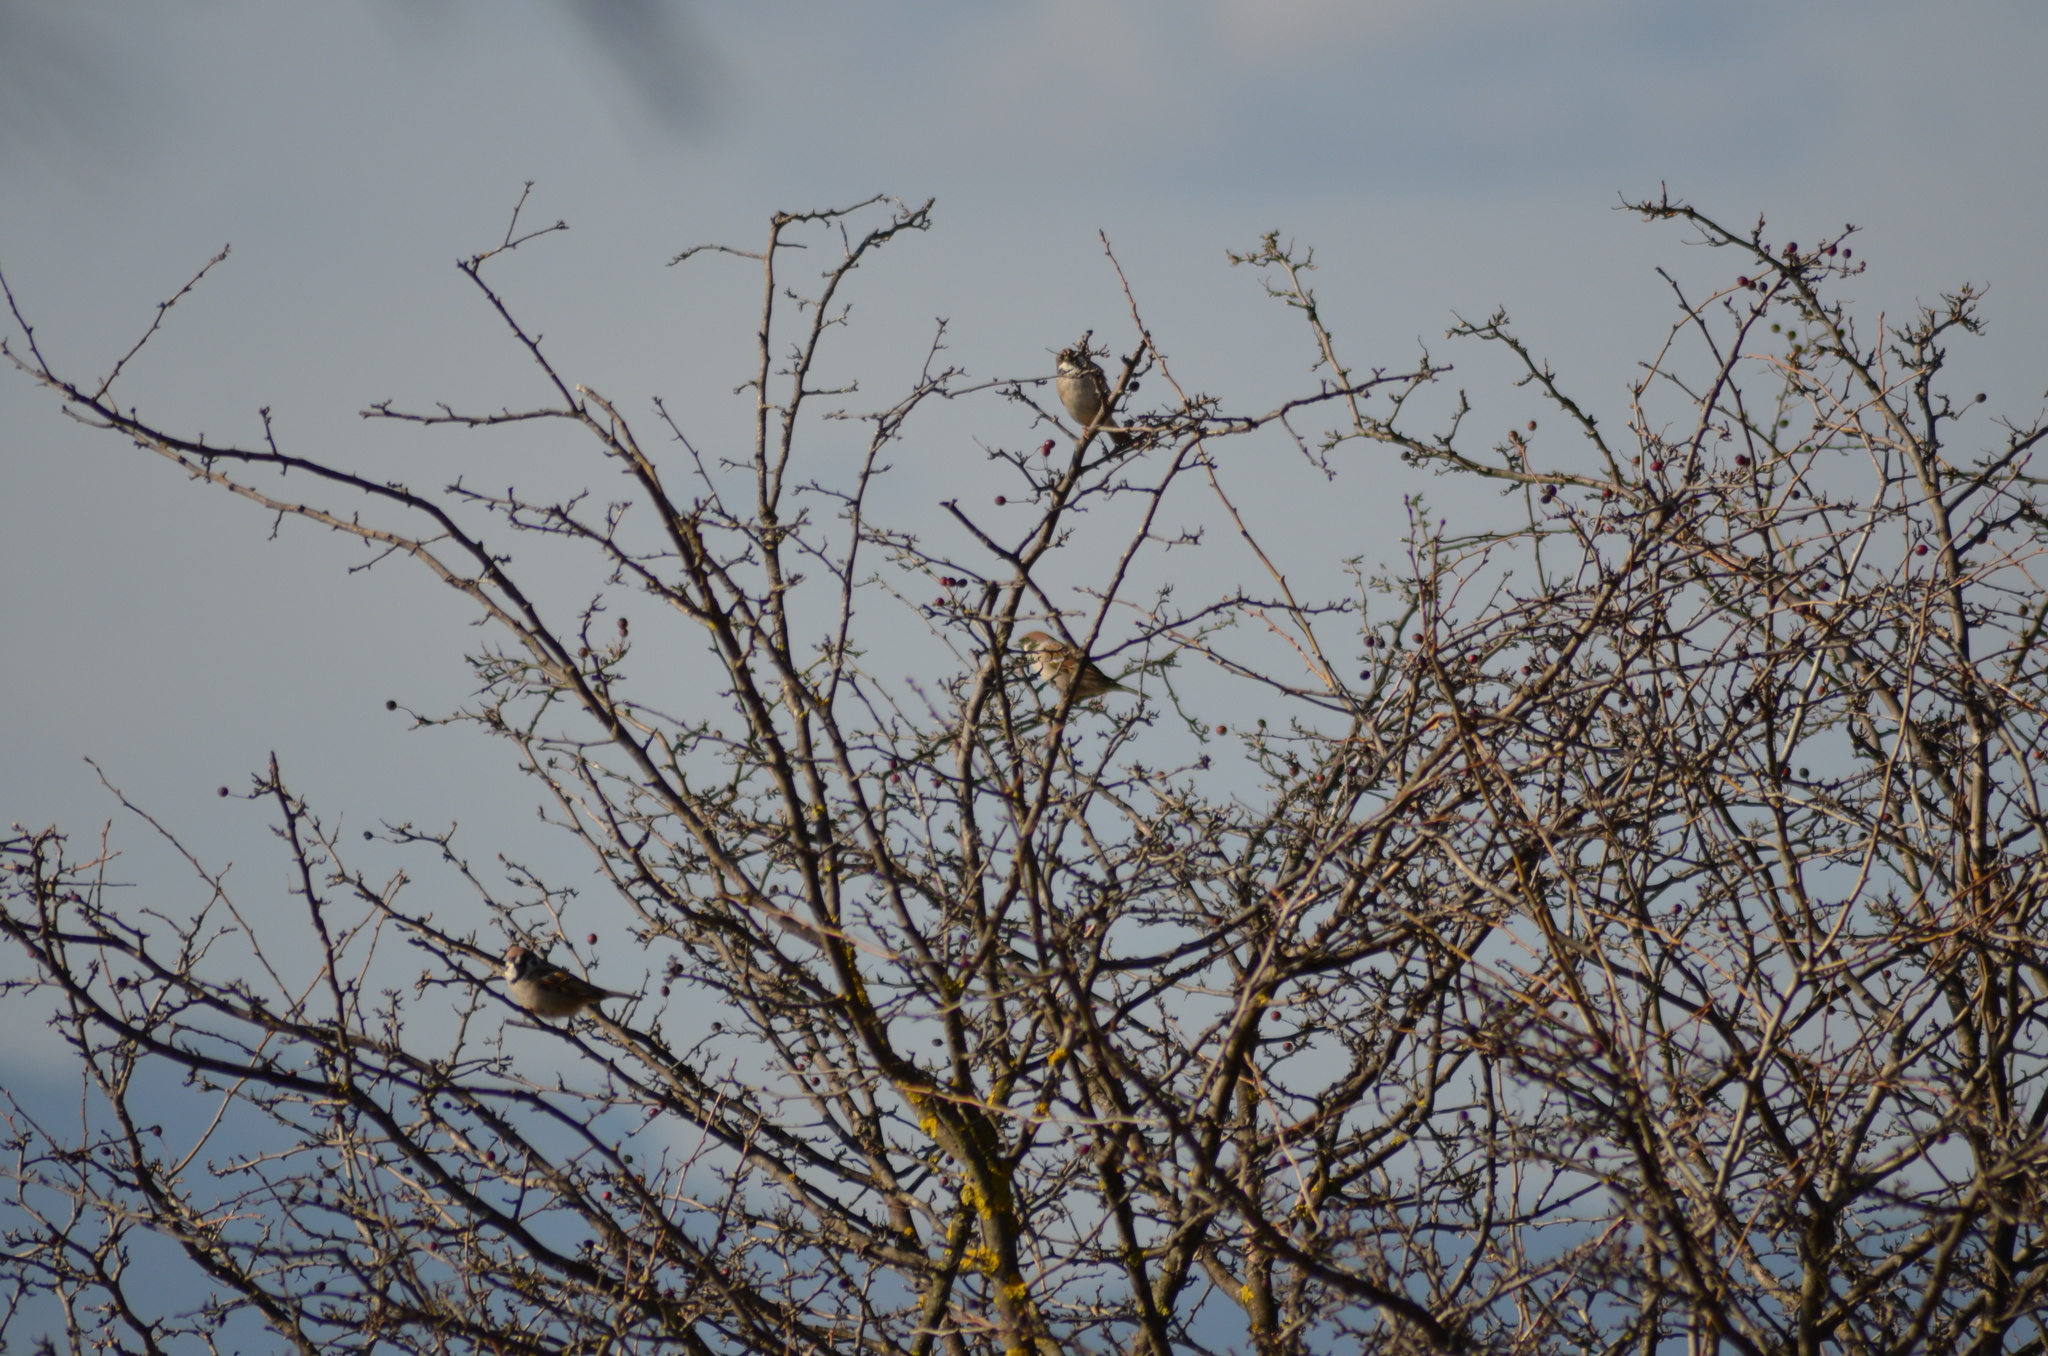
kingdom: Animalia
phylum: Chordata
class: Aves
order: Passeriformes
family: Passeridae
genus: Passer
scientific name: Passer montanus
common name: Eurasian tree sparrow
